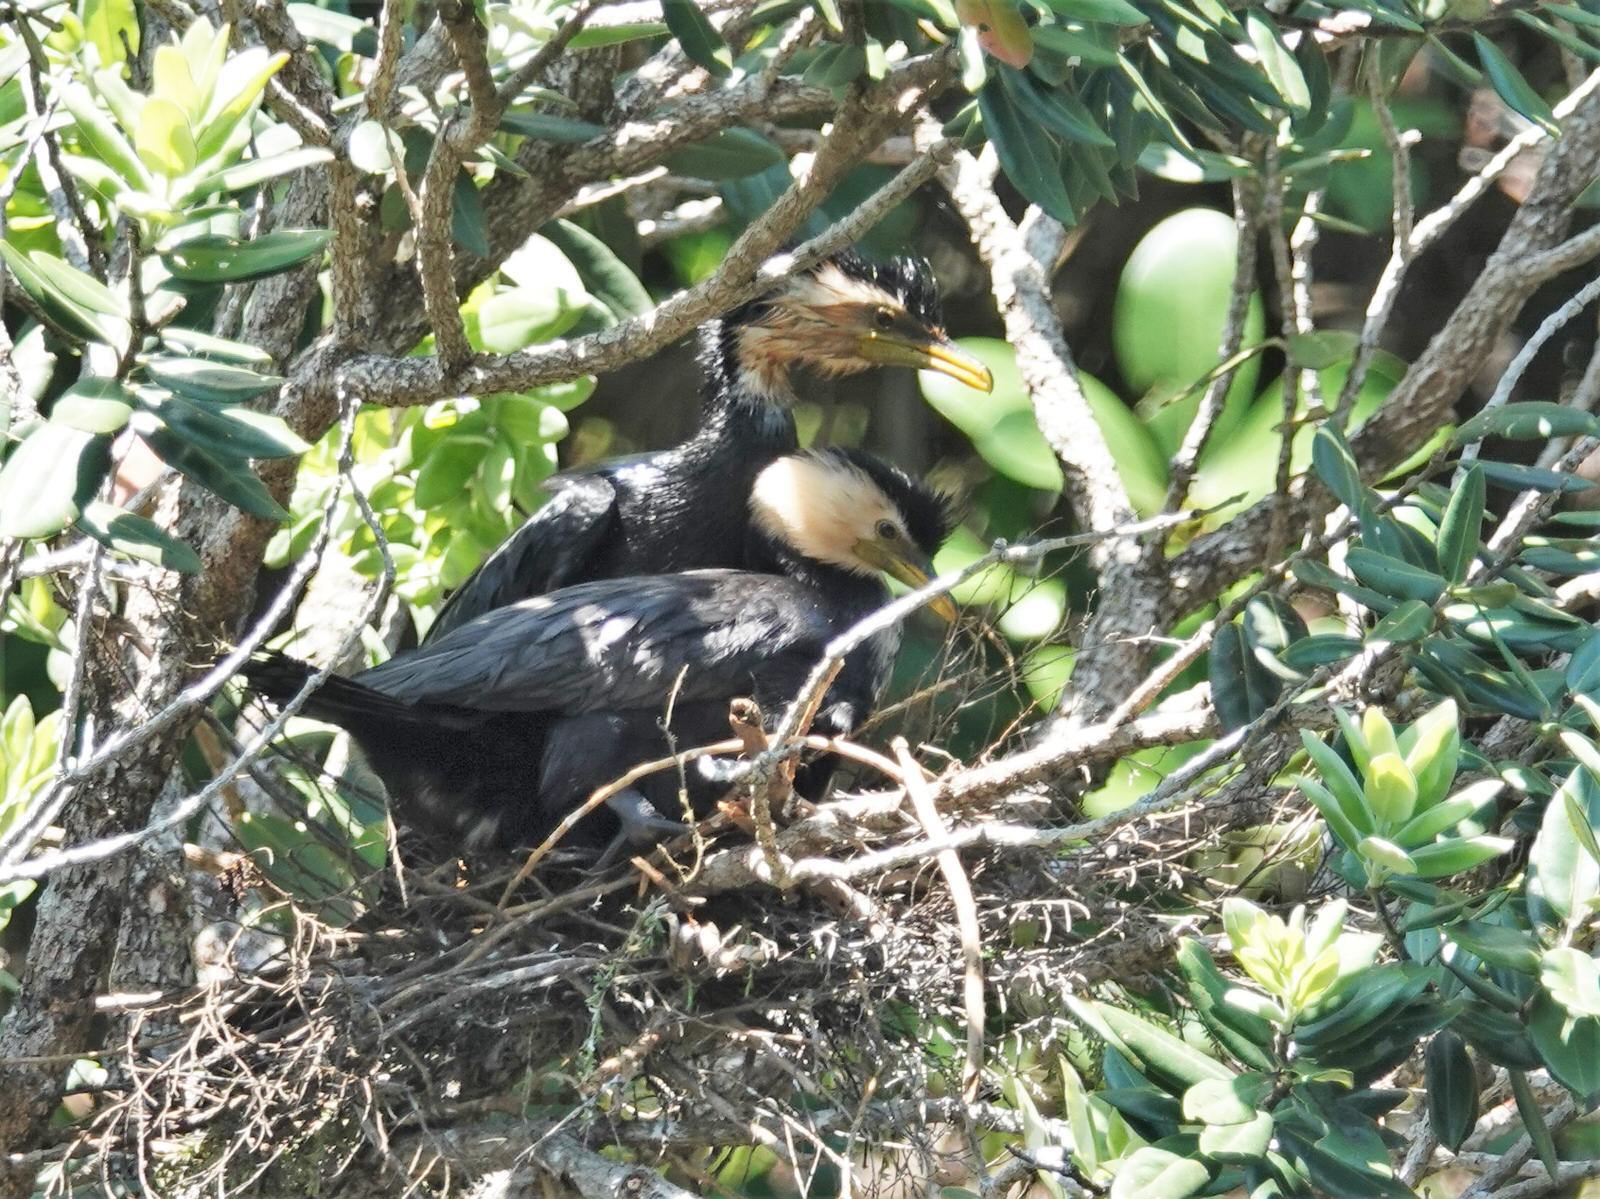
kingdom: Animalia
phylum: Chordata
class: Aves
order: Suliformes
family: Phalacrocoracidae
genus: Microcarbo
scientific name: Microcarbo melanoleucos
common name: Little pied cormorant
